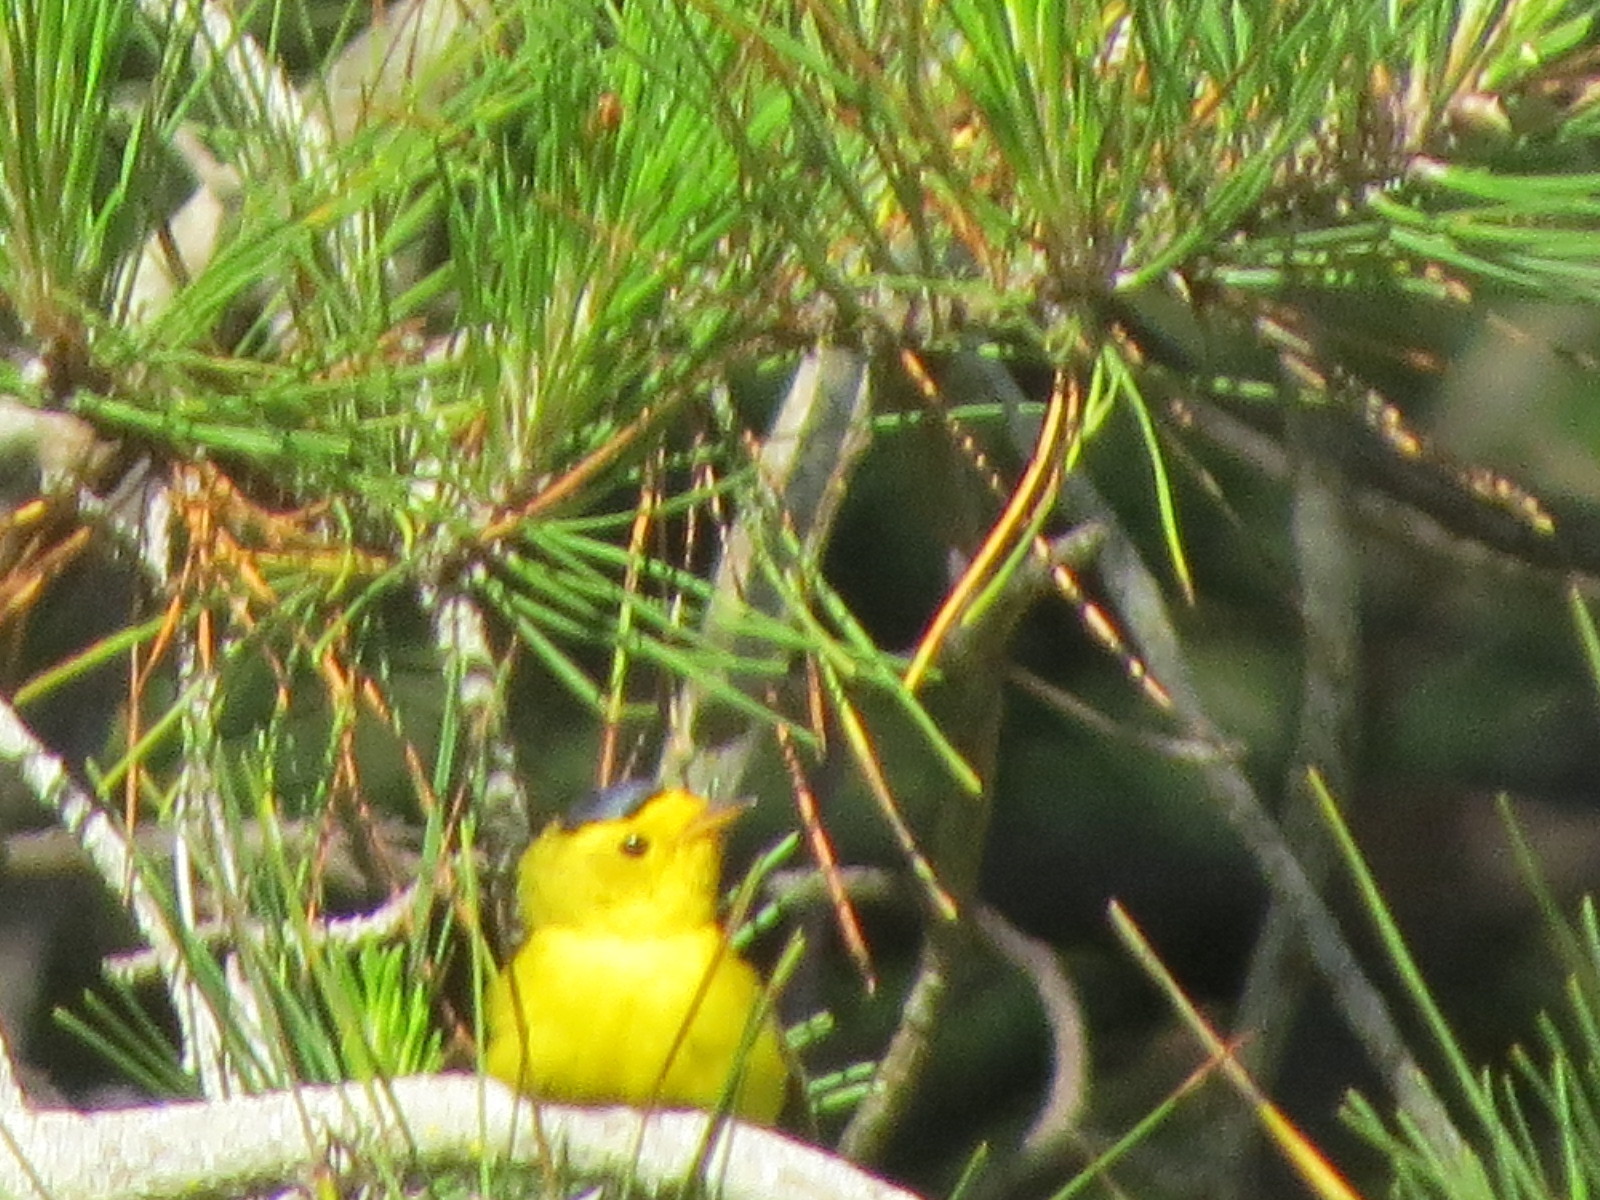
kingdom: Animalia
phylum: Chordata
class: Aves
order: Passeriformes
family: Parulidae
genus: Cardellina
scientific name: Cardellina pusilla
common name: Wilson's warbler
